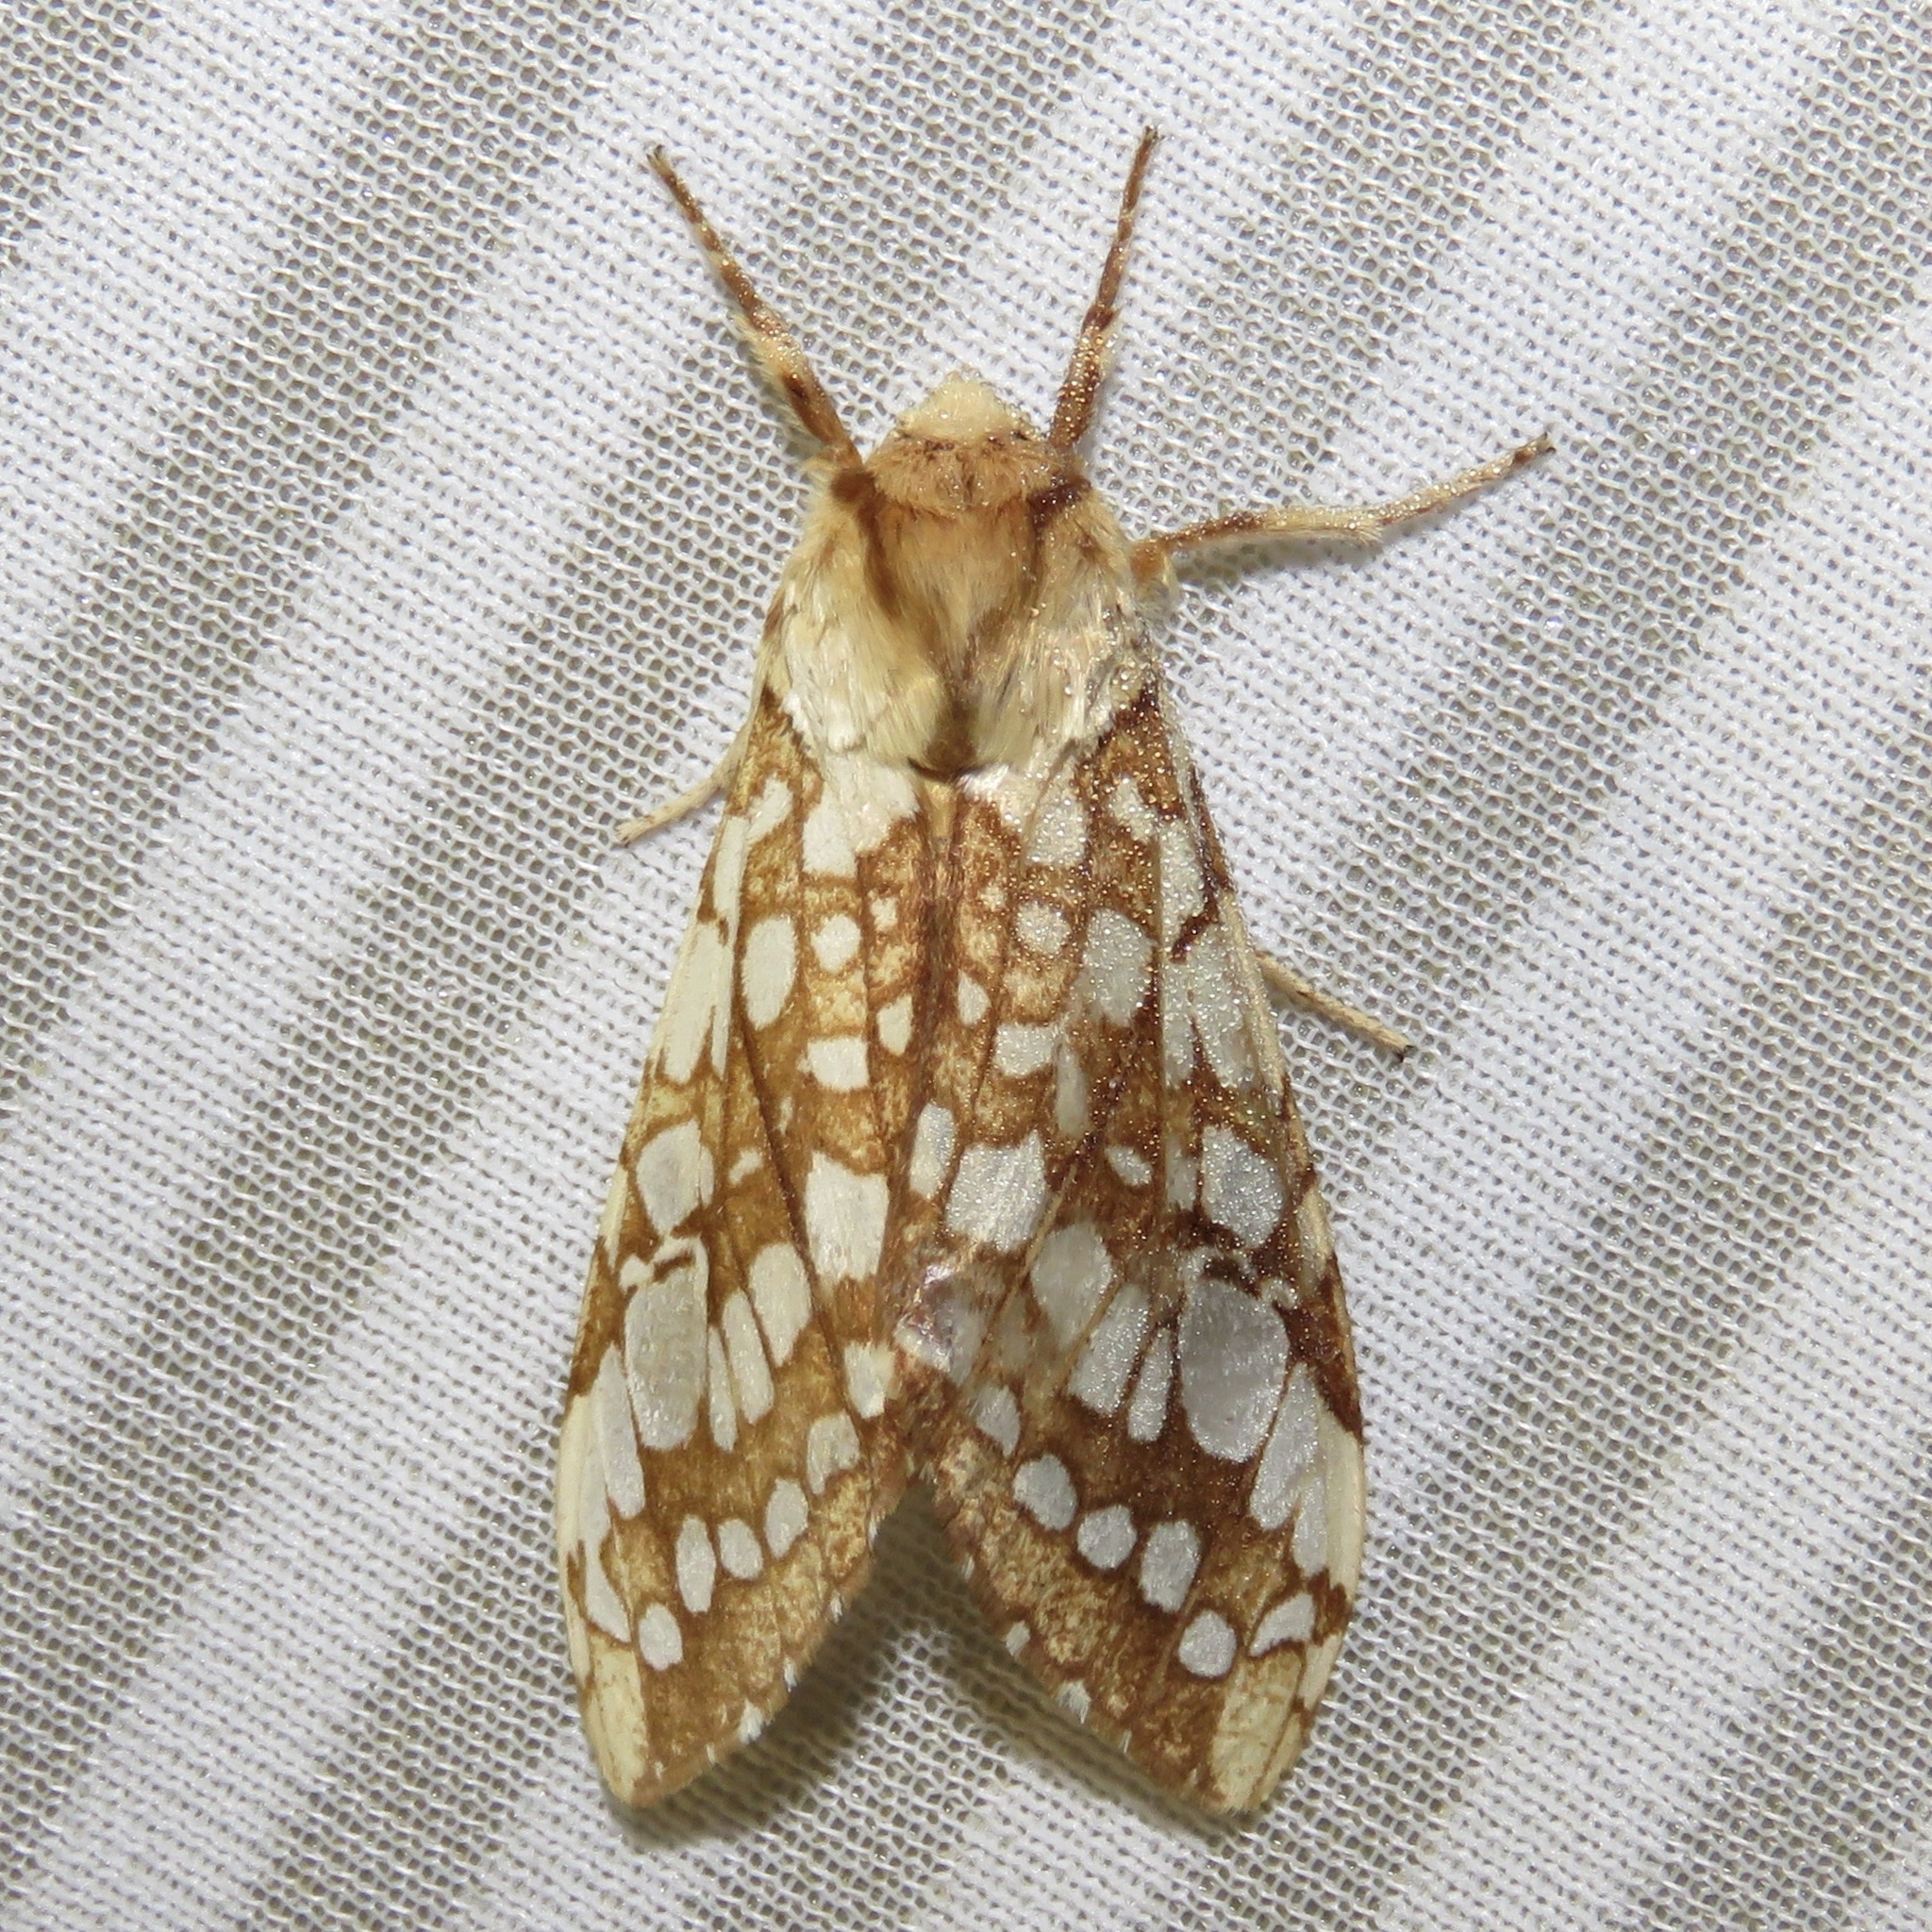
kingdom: Animalia
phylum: Arthropoda
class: Insecta
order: Lepidoptera
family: Erebidae
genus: Lophocampa
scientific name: Lophocampa caryae
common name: Hickory tussock moth
